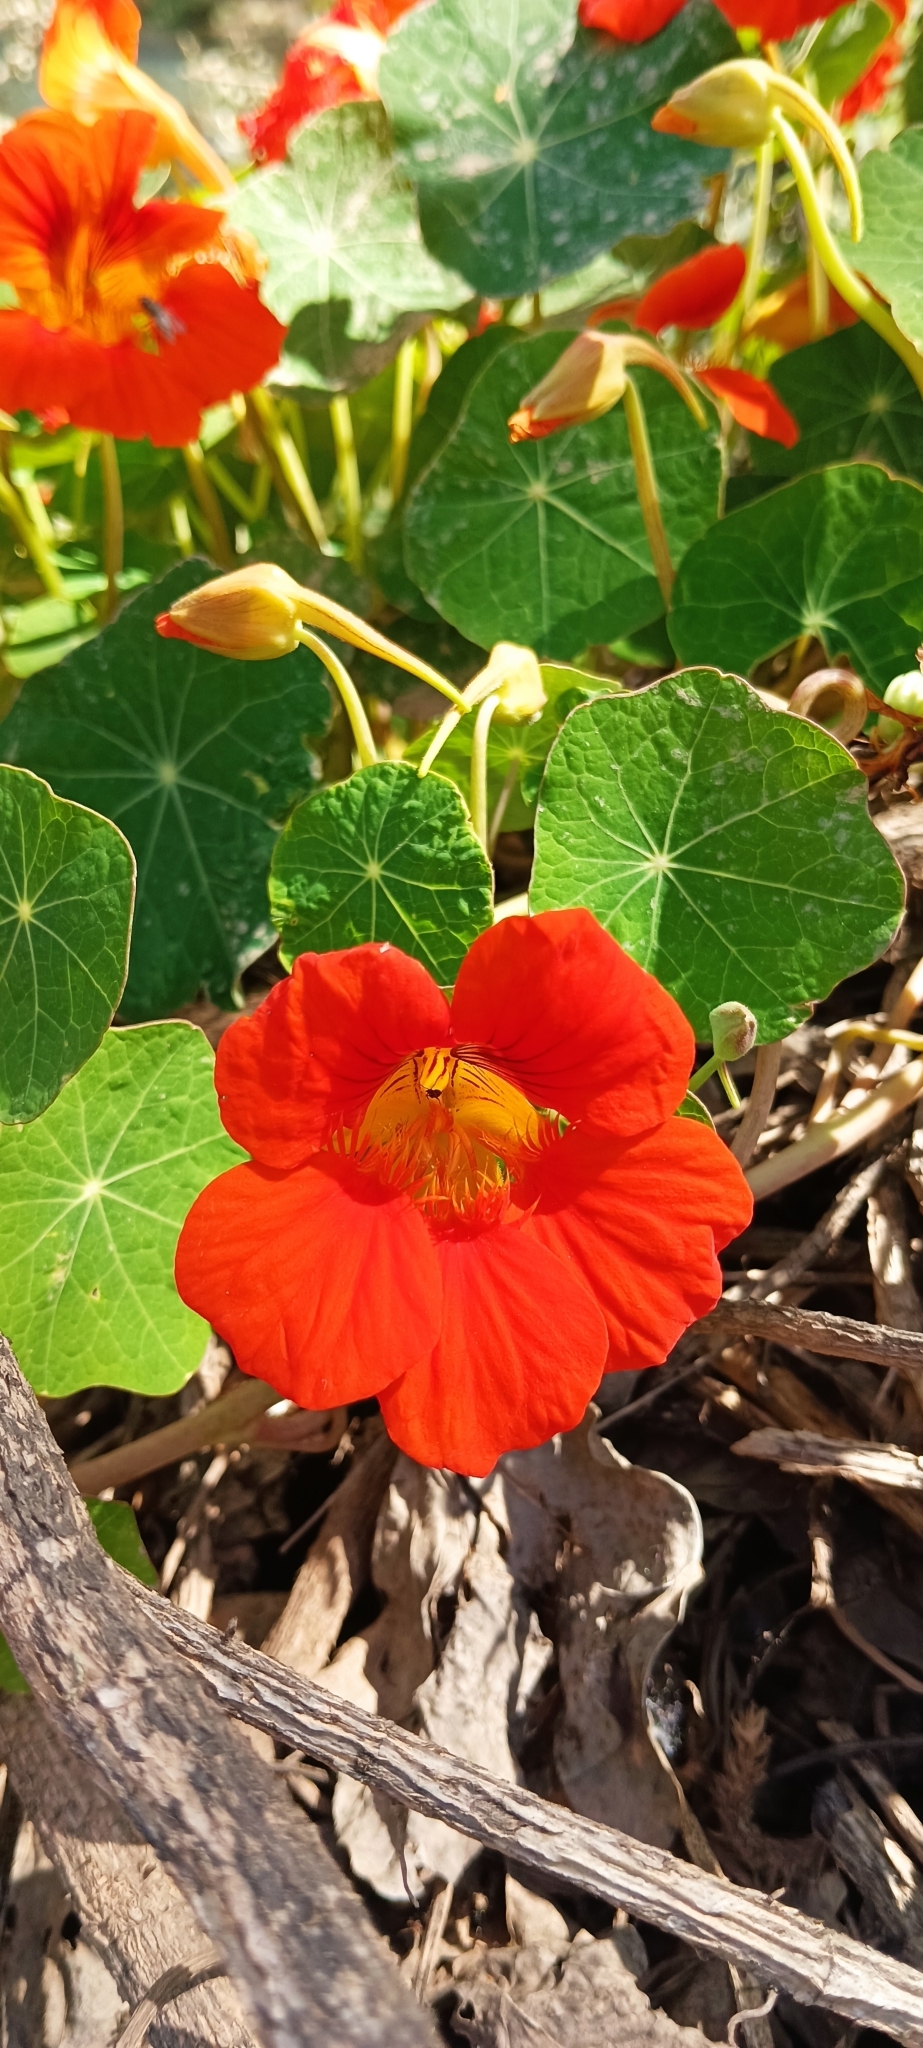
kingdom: Plantae
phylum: Tracheophyta
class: Magnoliopsida
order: Brassicales
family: Tropaeolaceae
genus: Tropaeolum
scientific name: Tropaeolum majus
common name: Nasturtium
